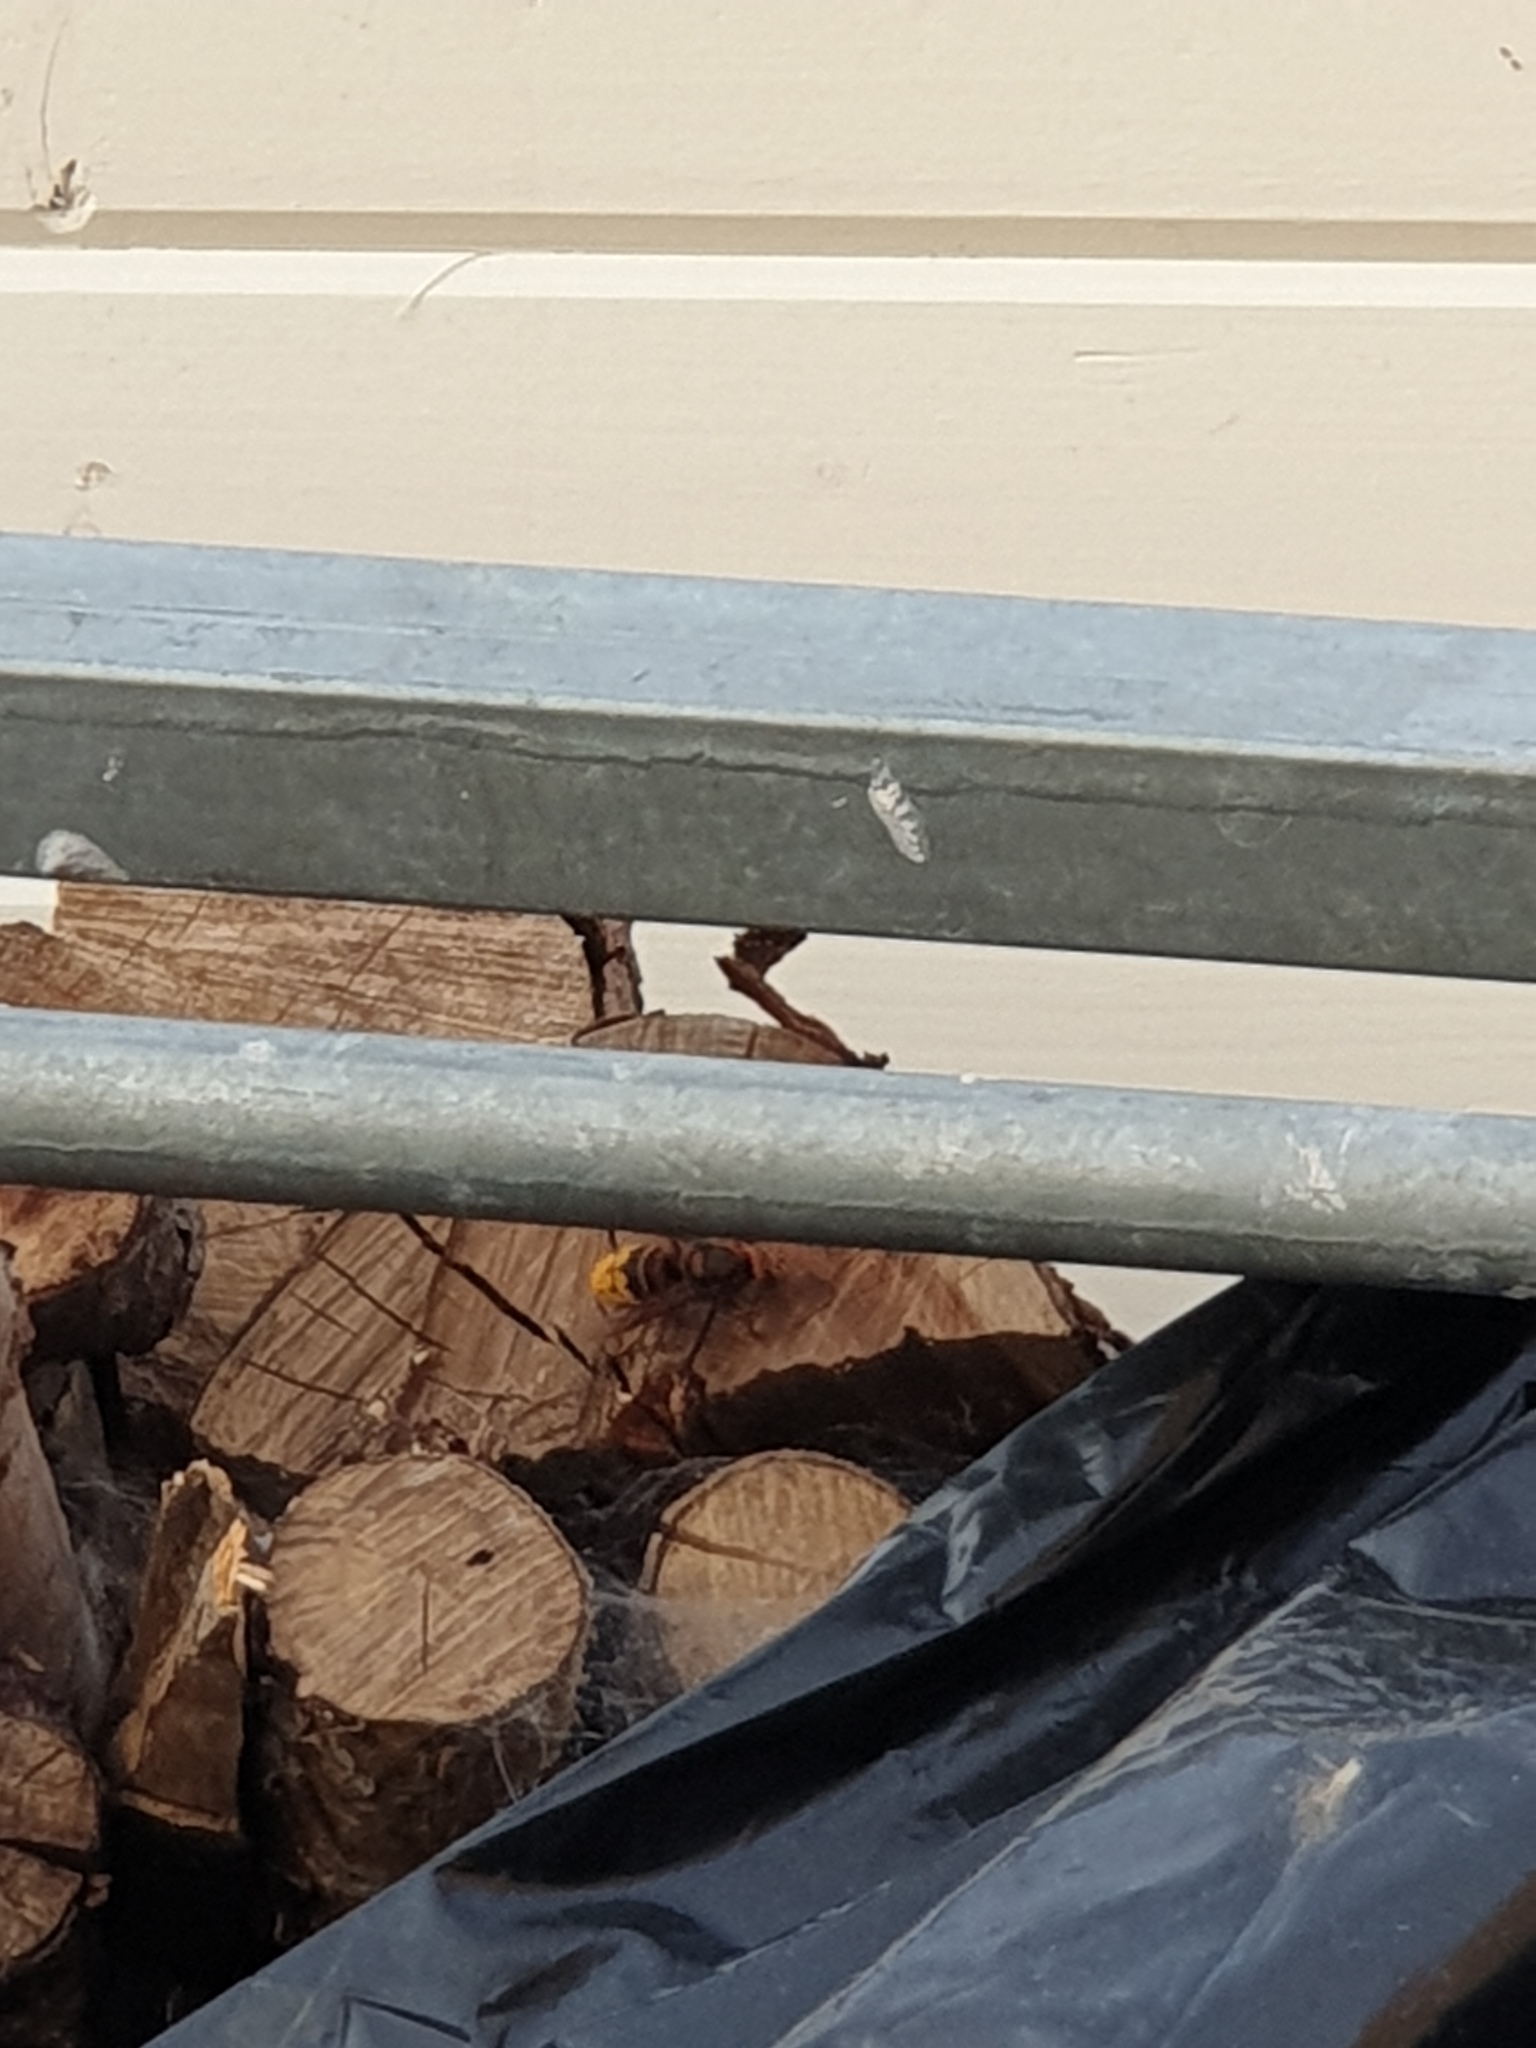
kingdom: Animalia
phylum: Arthropoda
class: Insecta
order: Hymenoptera
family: Vespidae
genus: Vespa
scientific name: Vespa crabro
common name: Hornet
